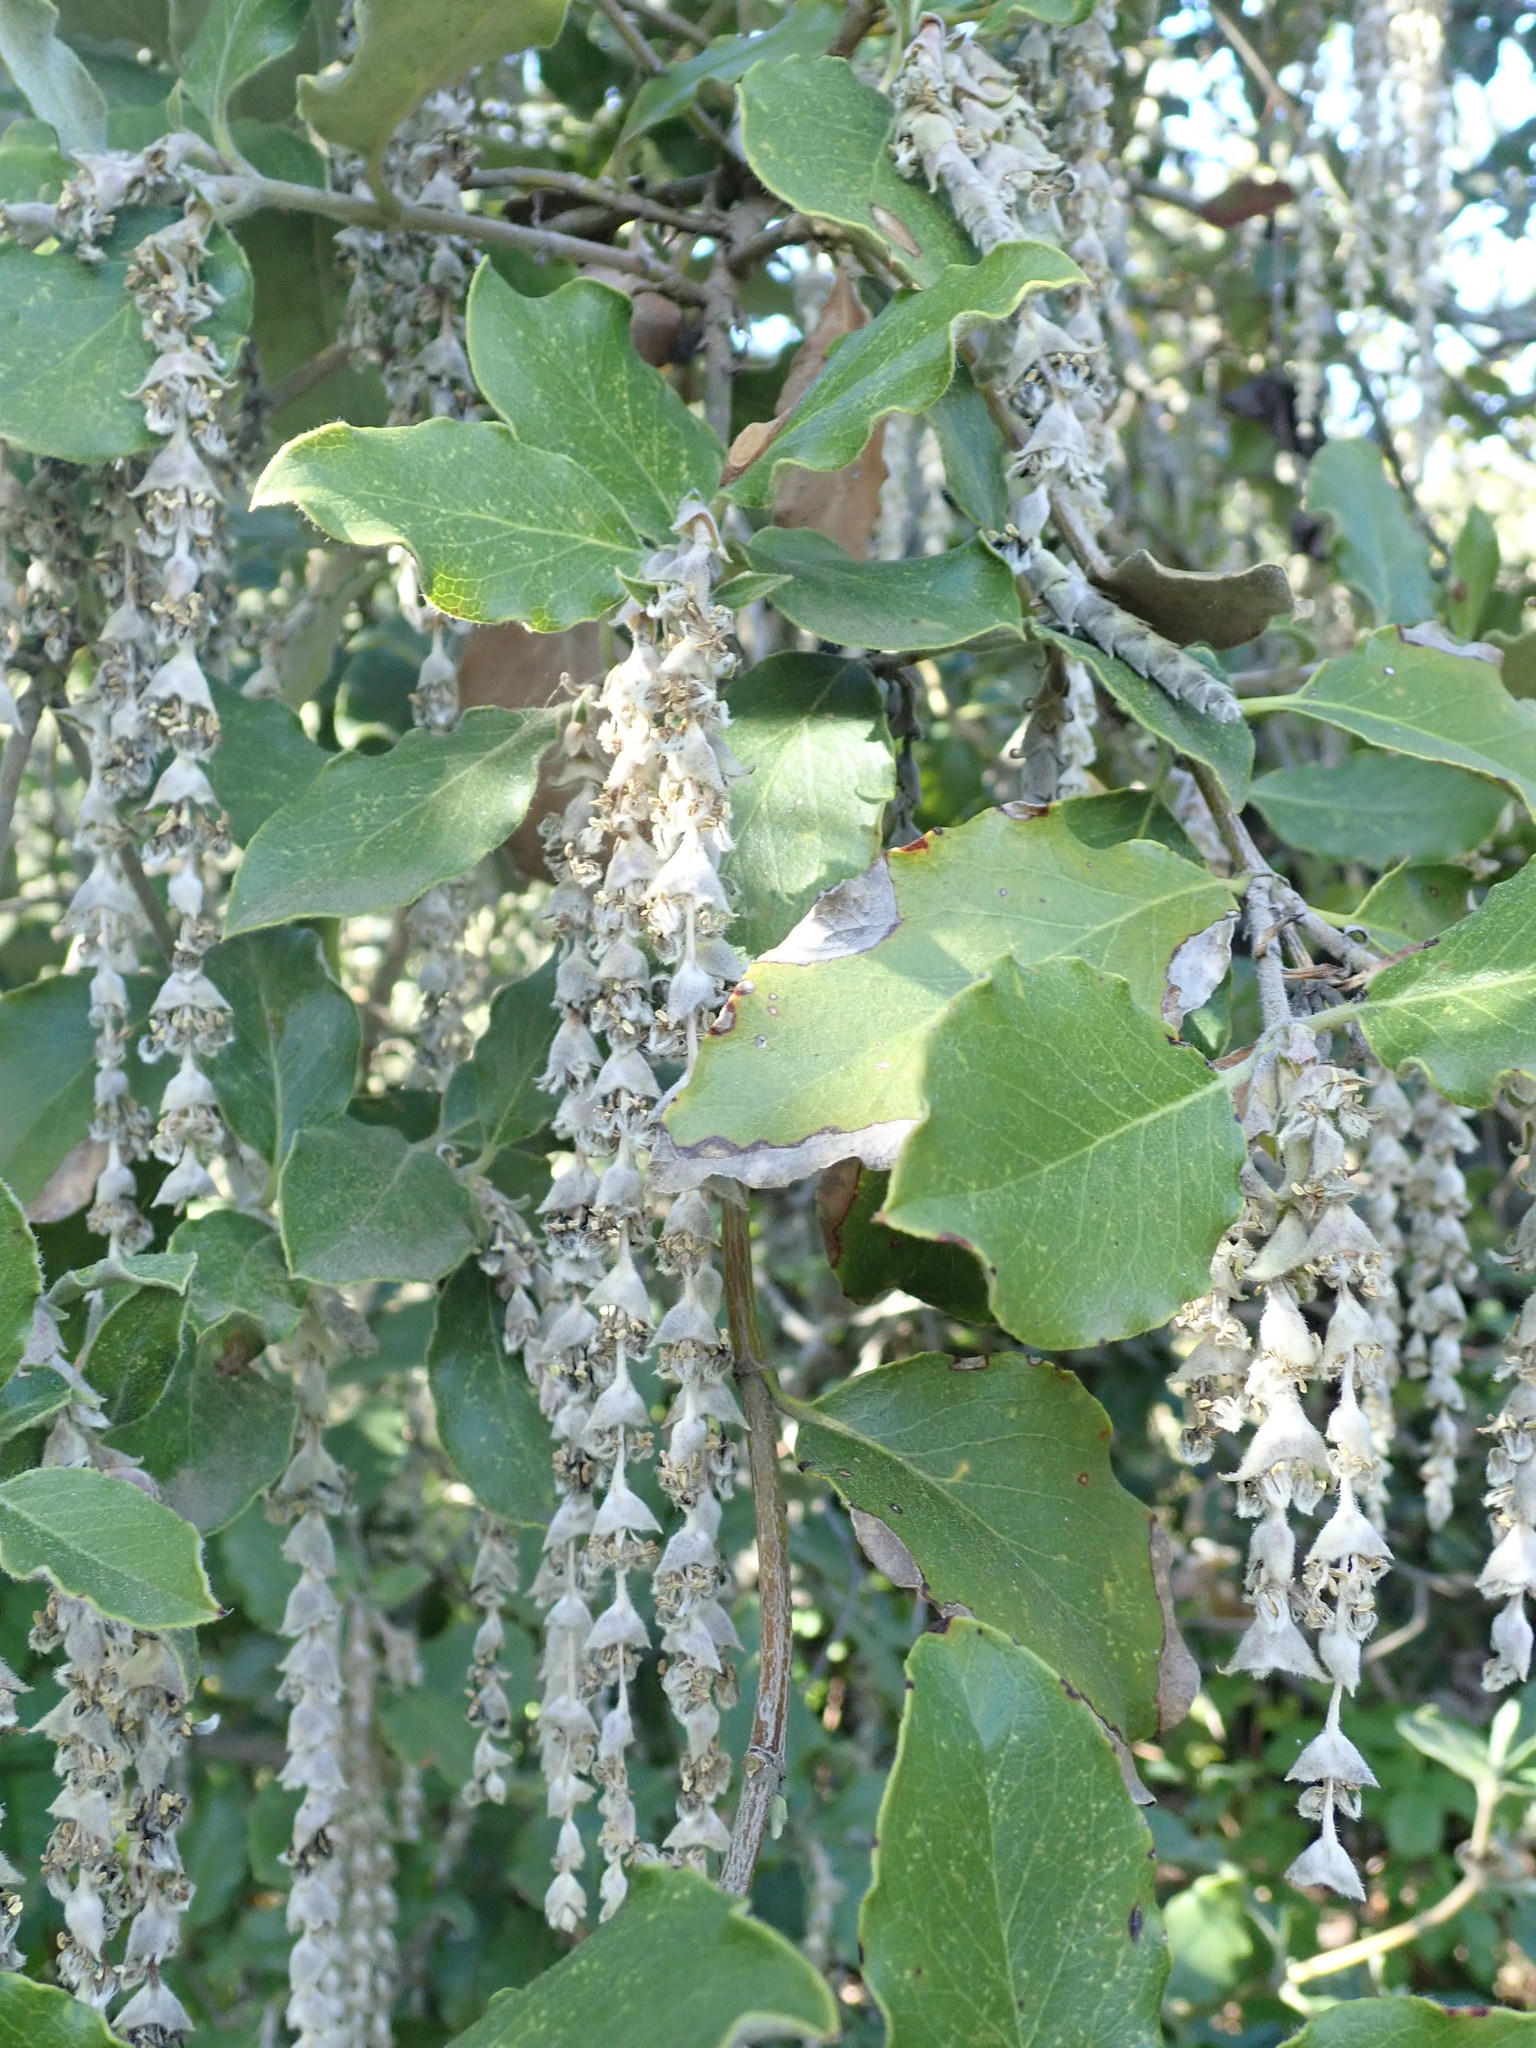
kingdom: Plantae
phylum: Tracheophyta
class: Magnoliopsida
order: Garryales
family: Garryaceae
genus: Garrya
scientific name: Garrya elliptica
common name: Silk-tassel
